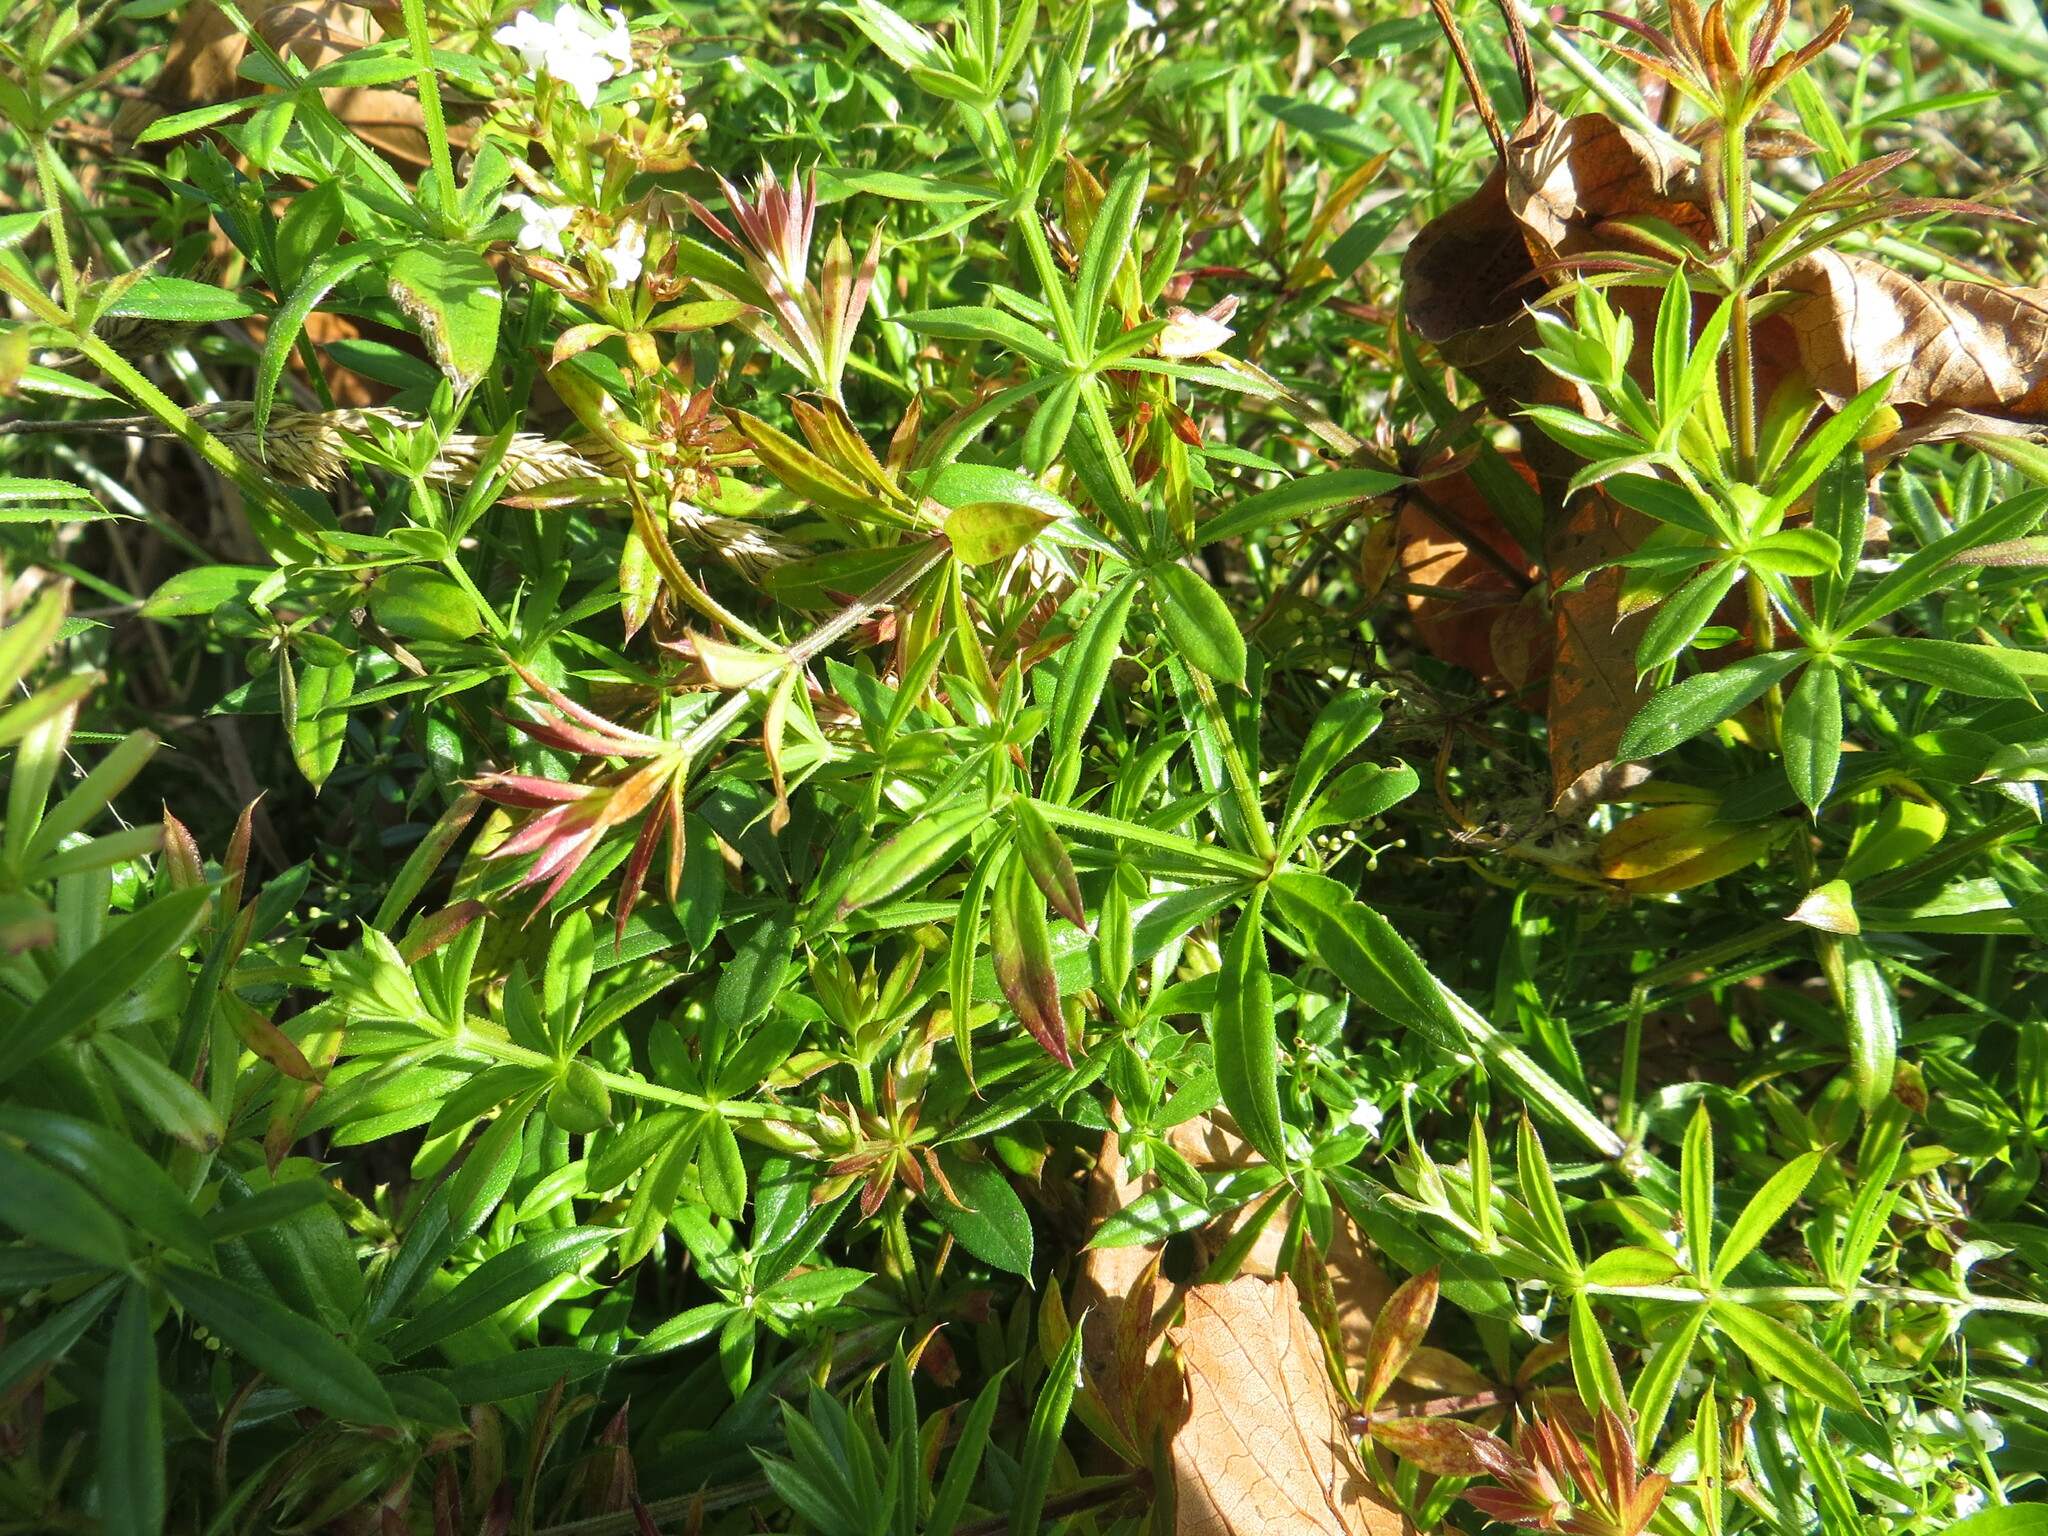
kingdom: Plantae
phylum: Tracheophyta
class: Magnoliopsida
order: Gentianales
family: Rubiaceae
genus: Galium
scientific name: Galium rivale
